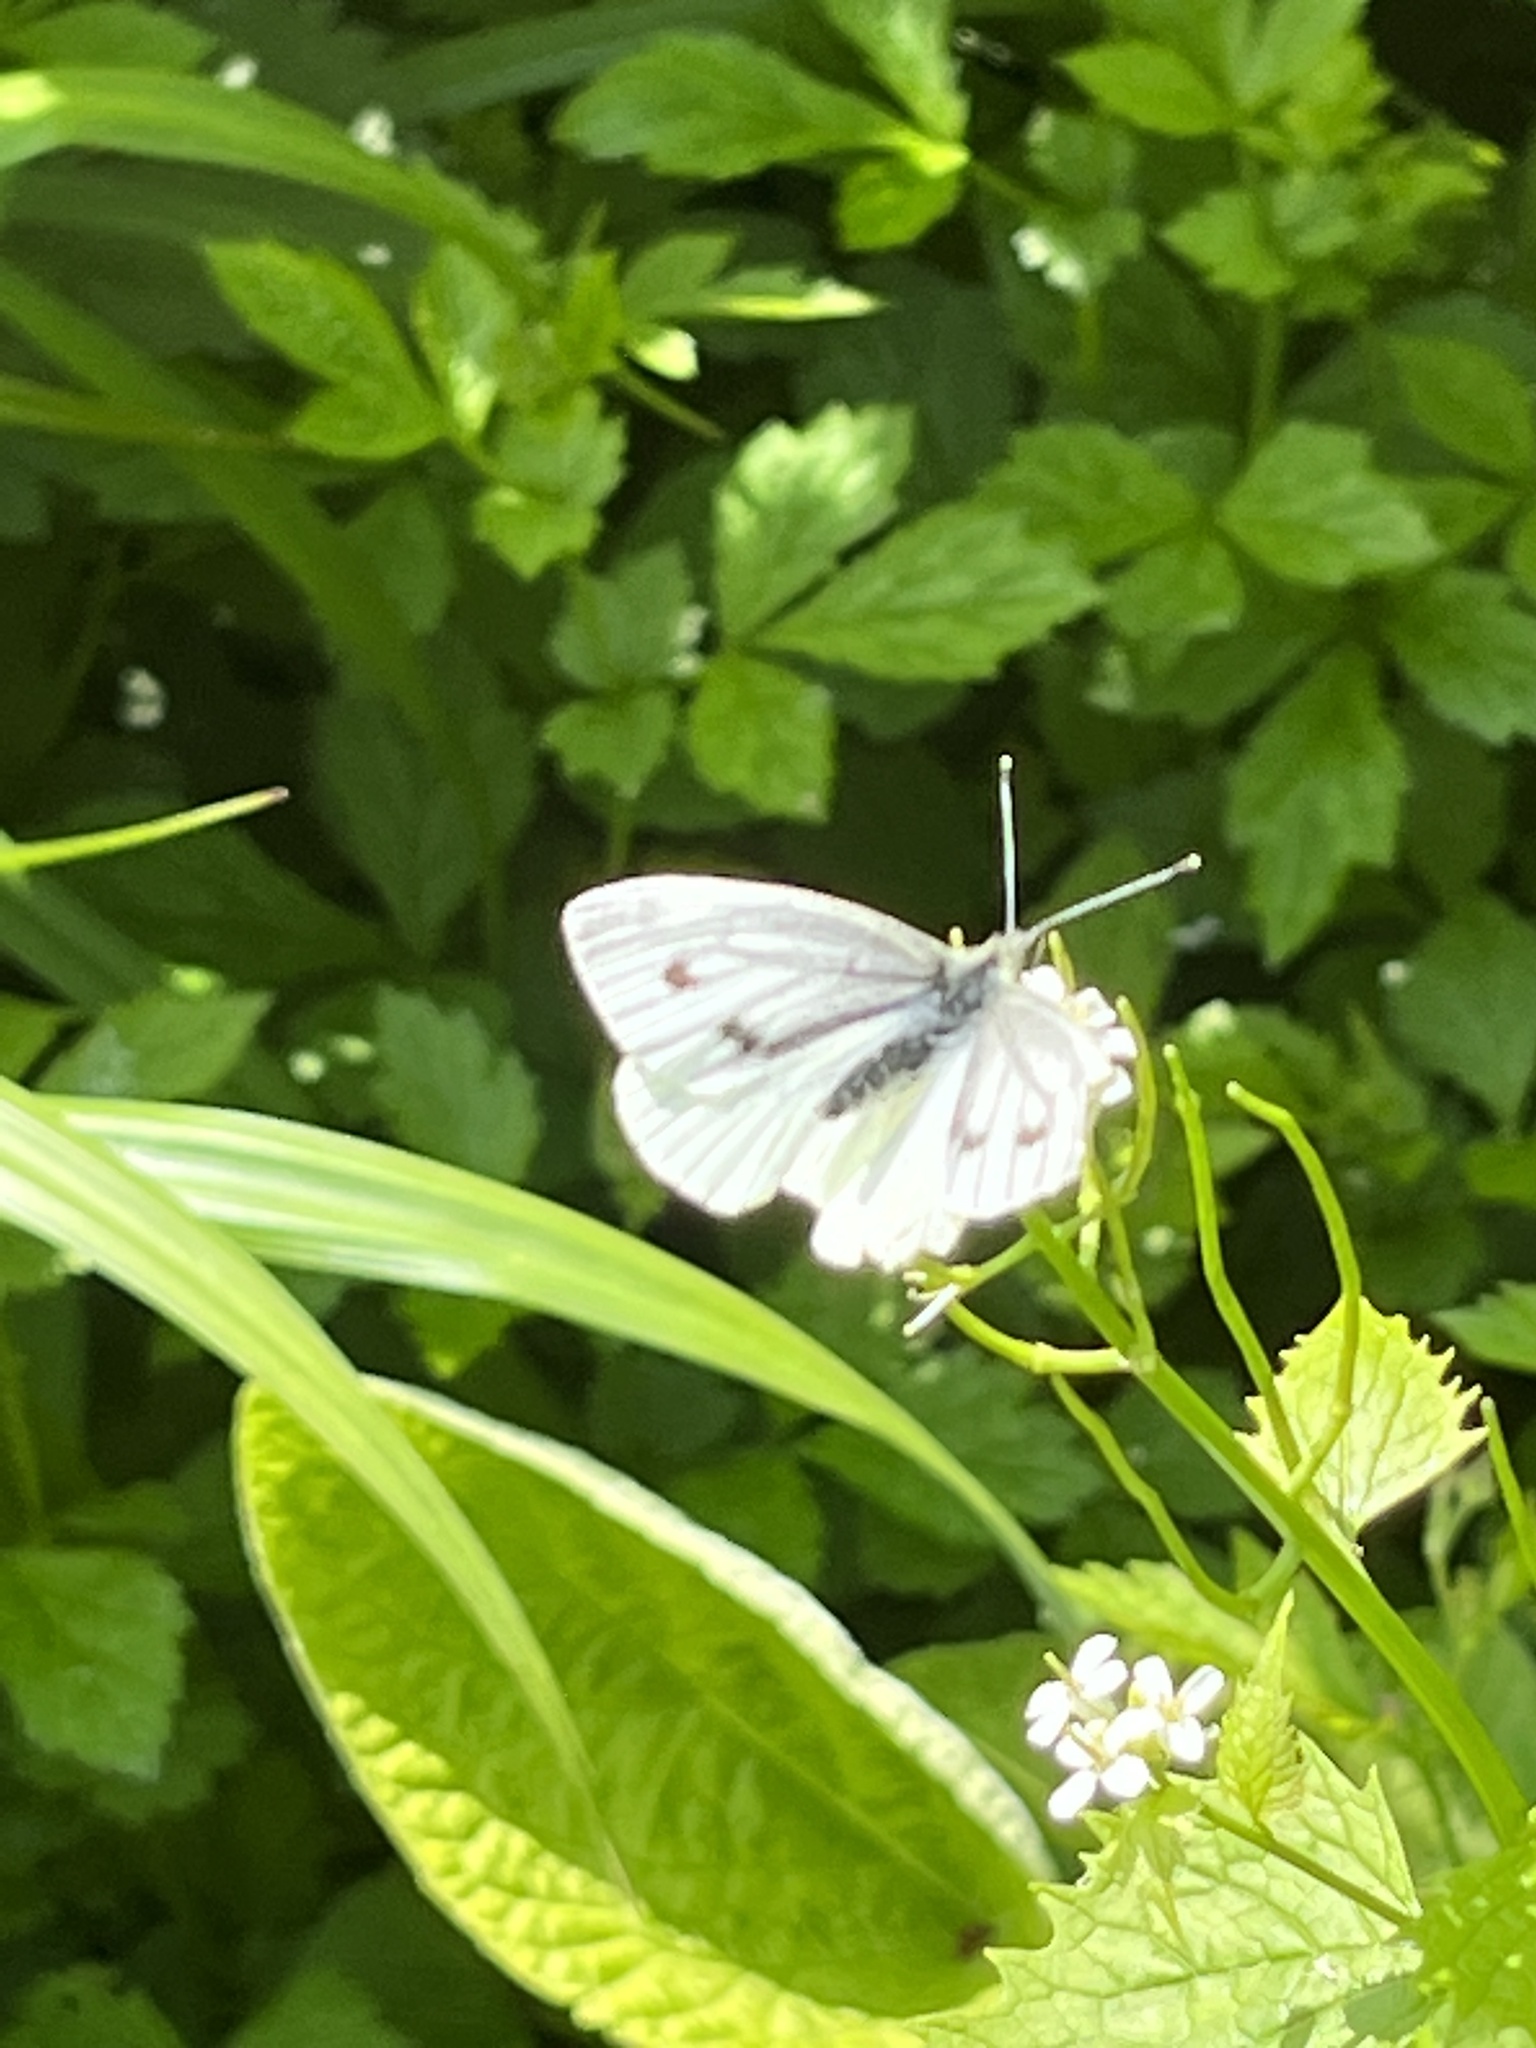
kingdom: Animalia
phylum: Arthropoda
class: Insecta
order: Lepidoptera
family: Pieridae
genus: Pieris
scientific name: Pieris napi
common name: Green-veined white
